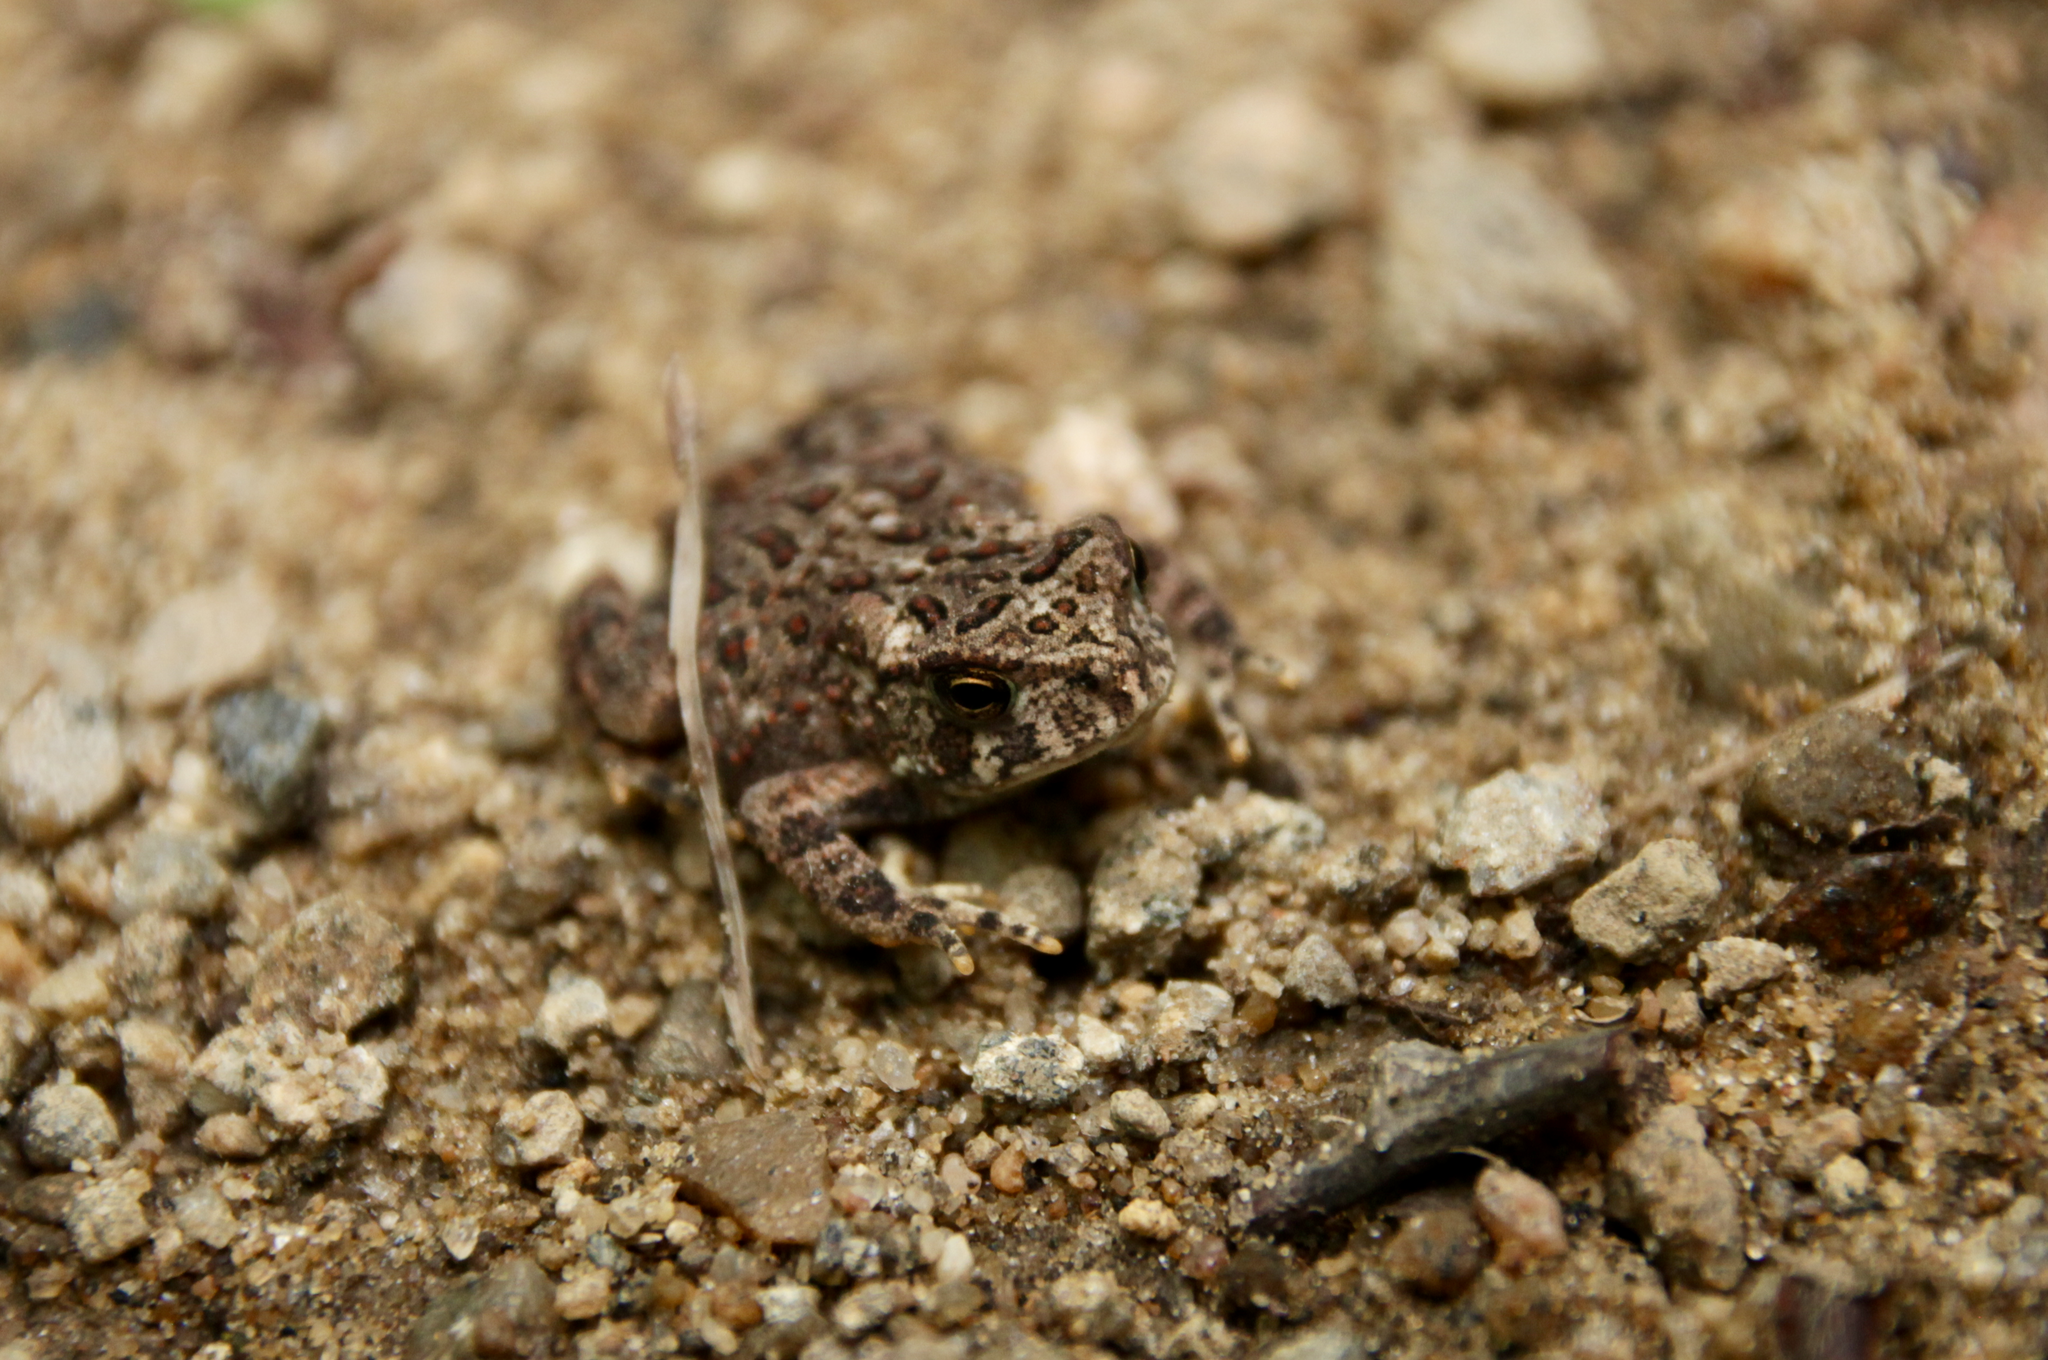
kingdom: Animalia
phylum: Chordata
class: Amphibia
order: Anura
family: Bufonidae
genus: Anaxyrus
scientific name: Anaxyrus americanus
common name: American toad
